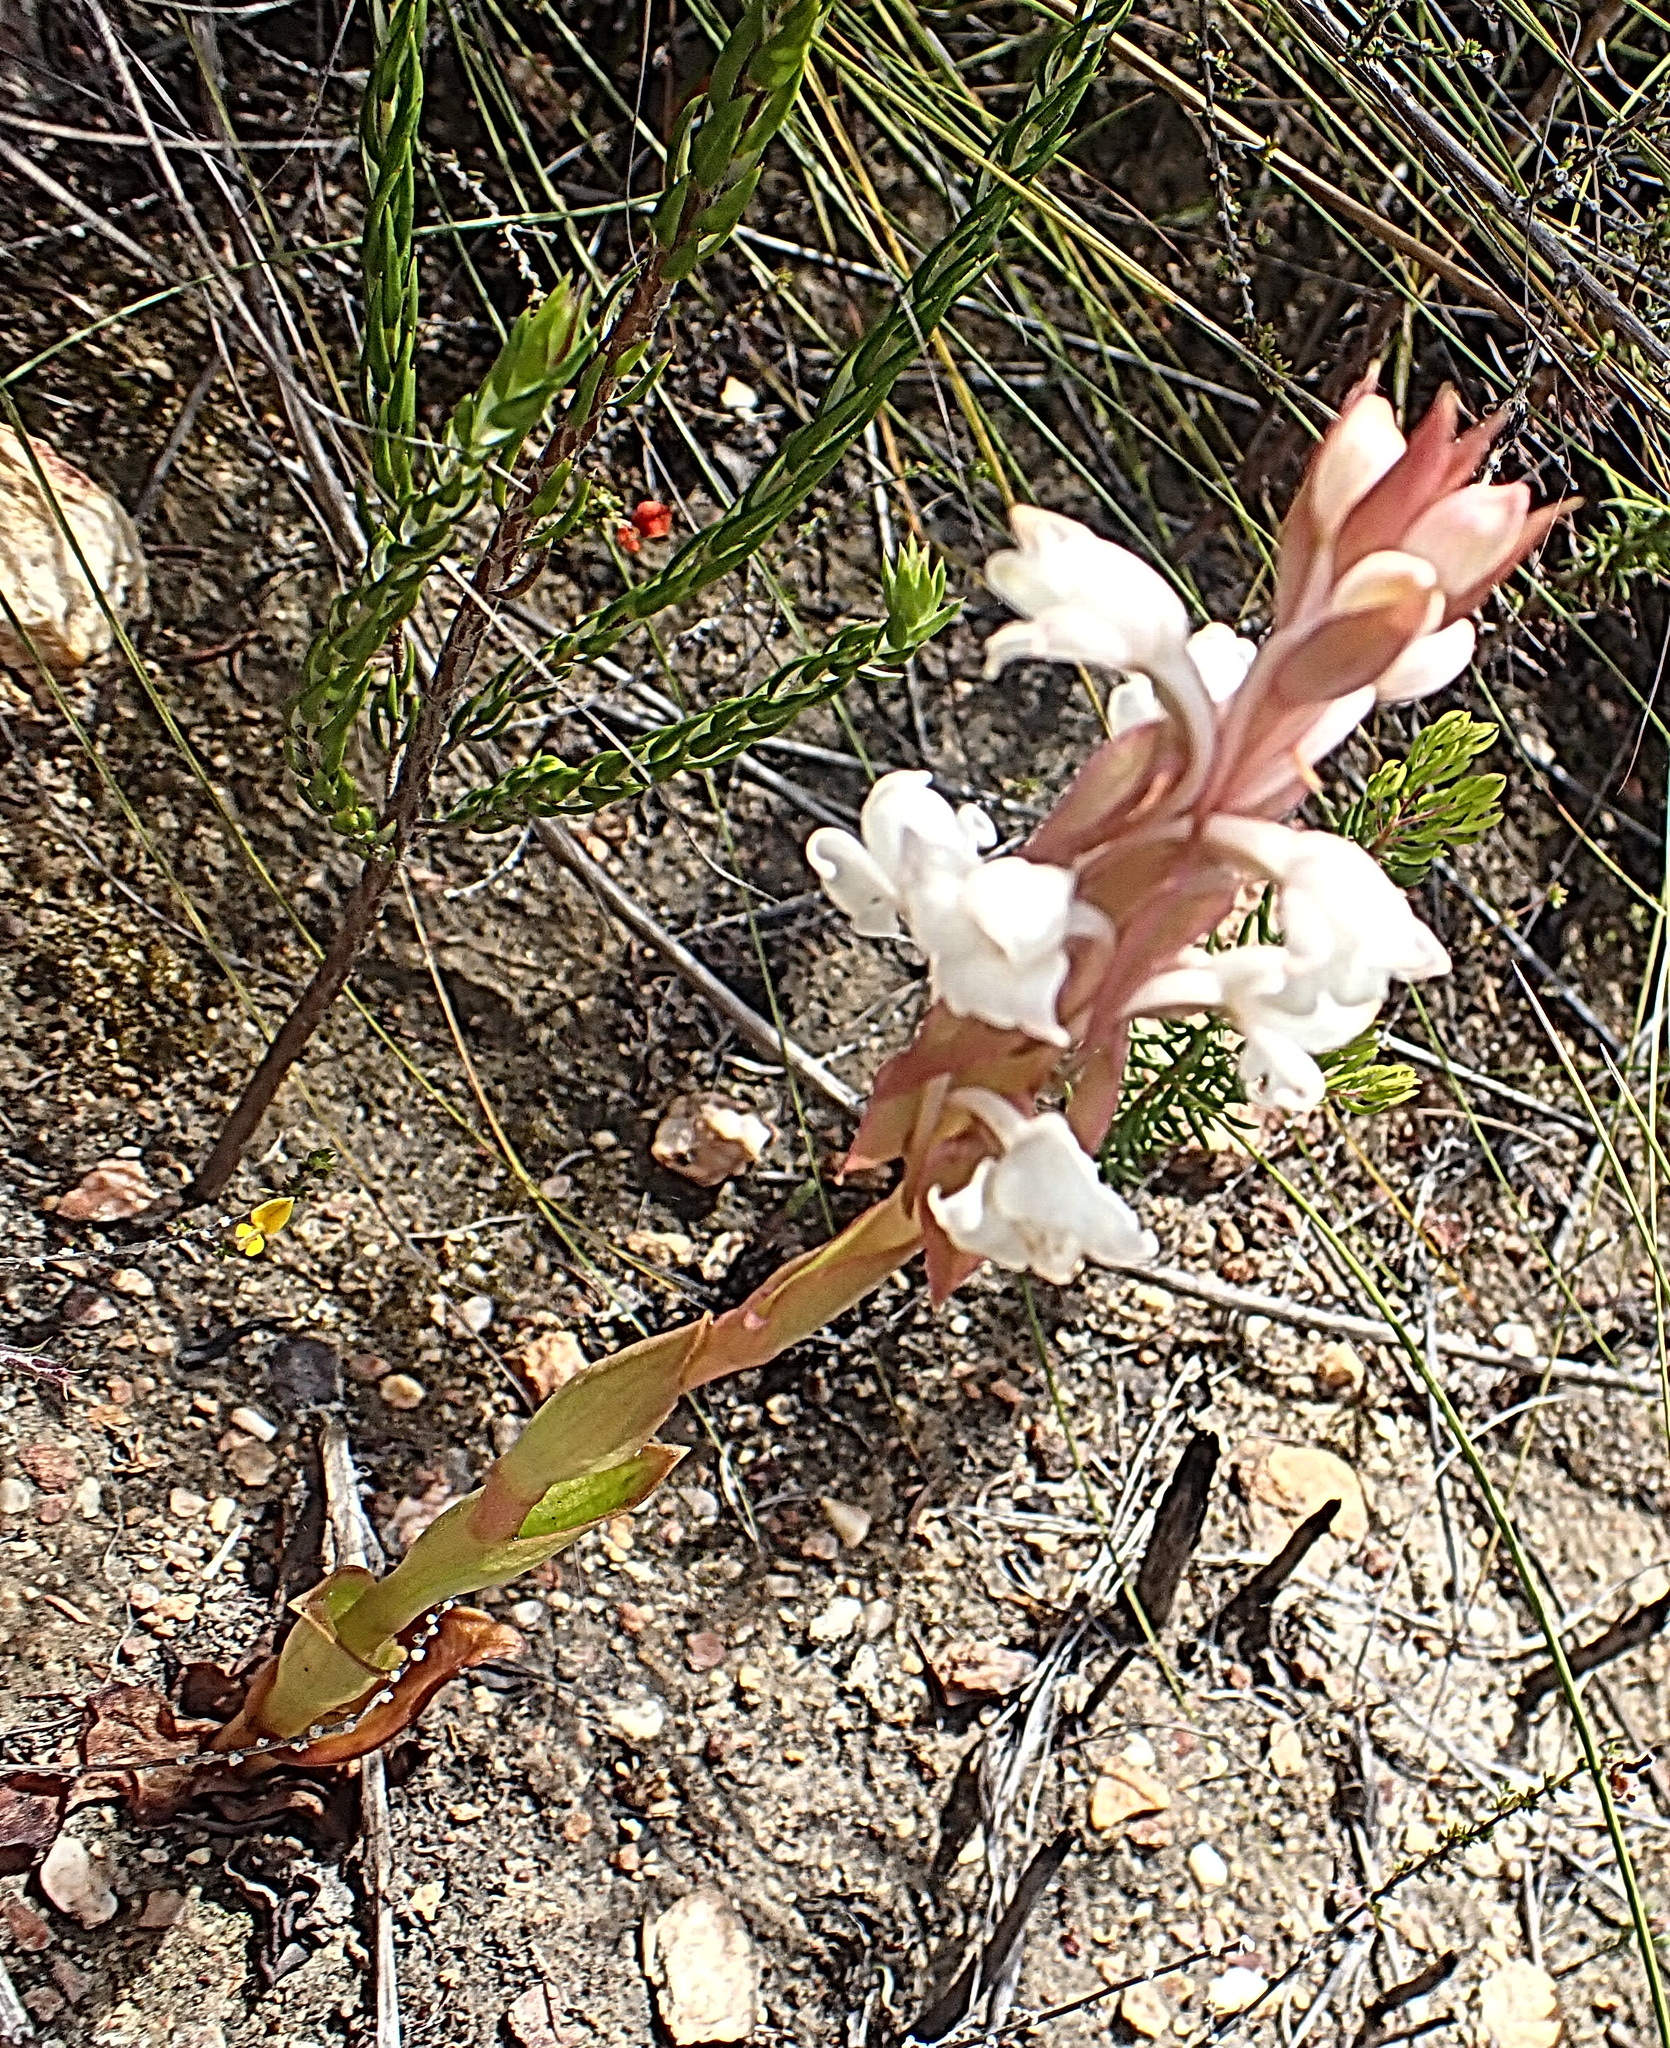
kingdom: Plantae
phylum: Tracheophyta
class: Liliopsida
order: Asparagales
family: Orchidaceae
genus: Satyrium
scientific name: Satyrium acuminatum
